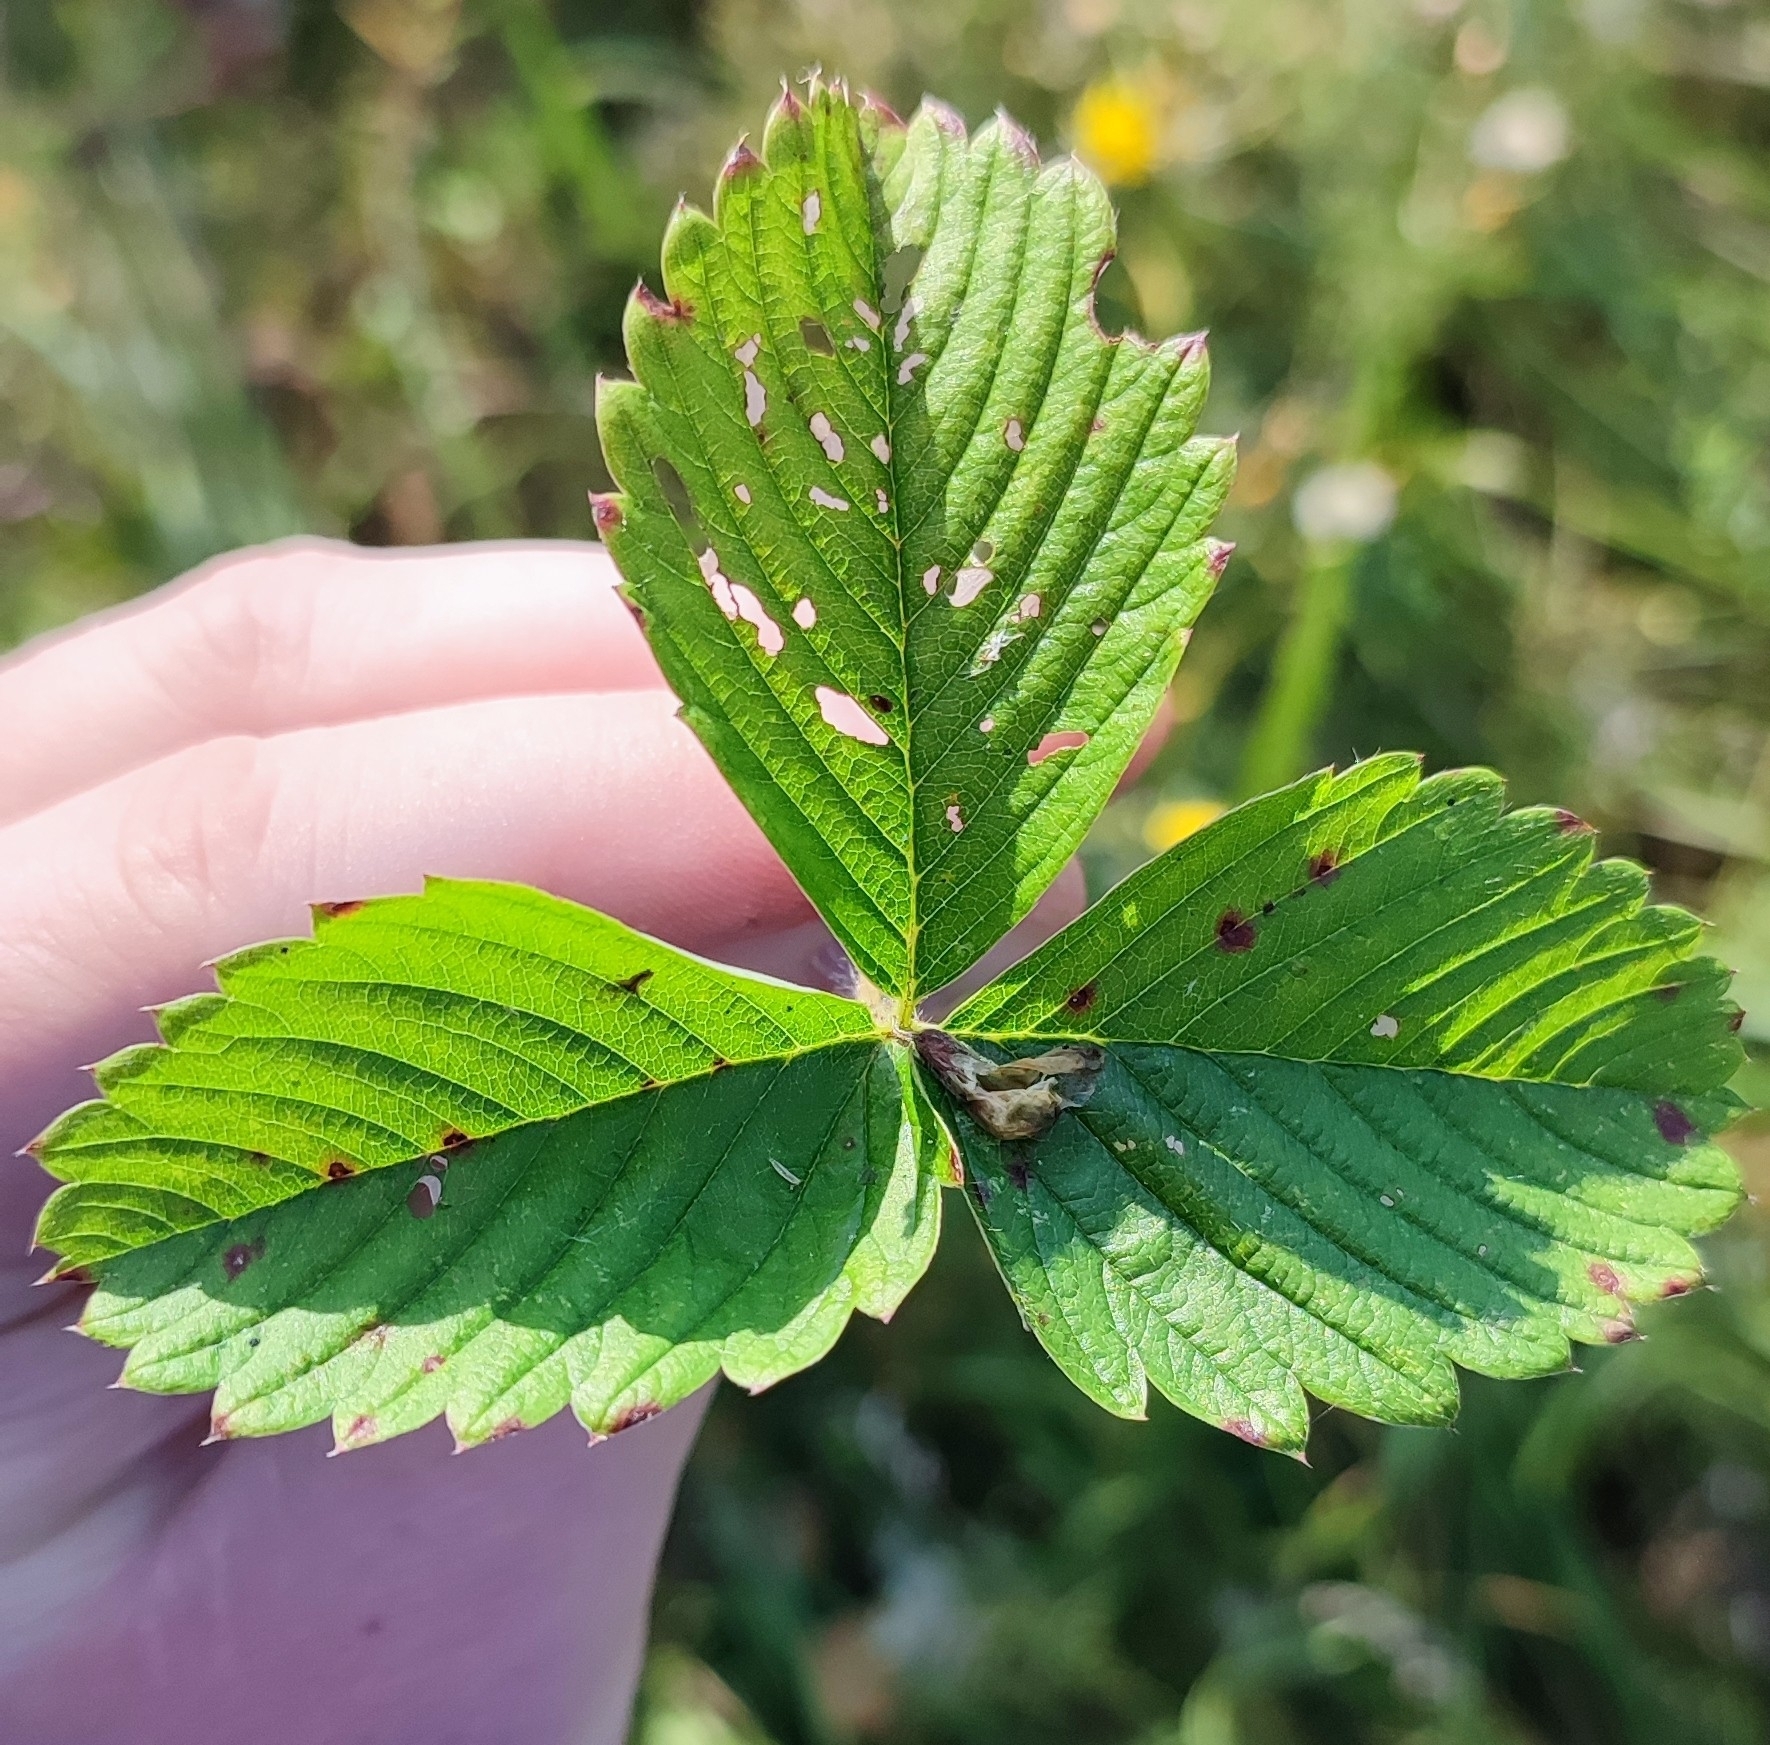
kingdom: Plantae
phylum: Tracheophyta
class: Magnoliopsida
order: Rosales
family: Rosaceae
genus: Fragaria
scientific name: Fragaria viridis
